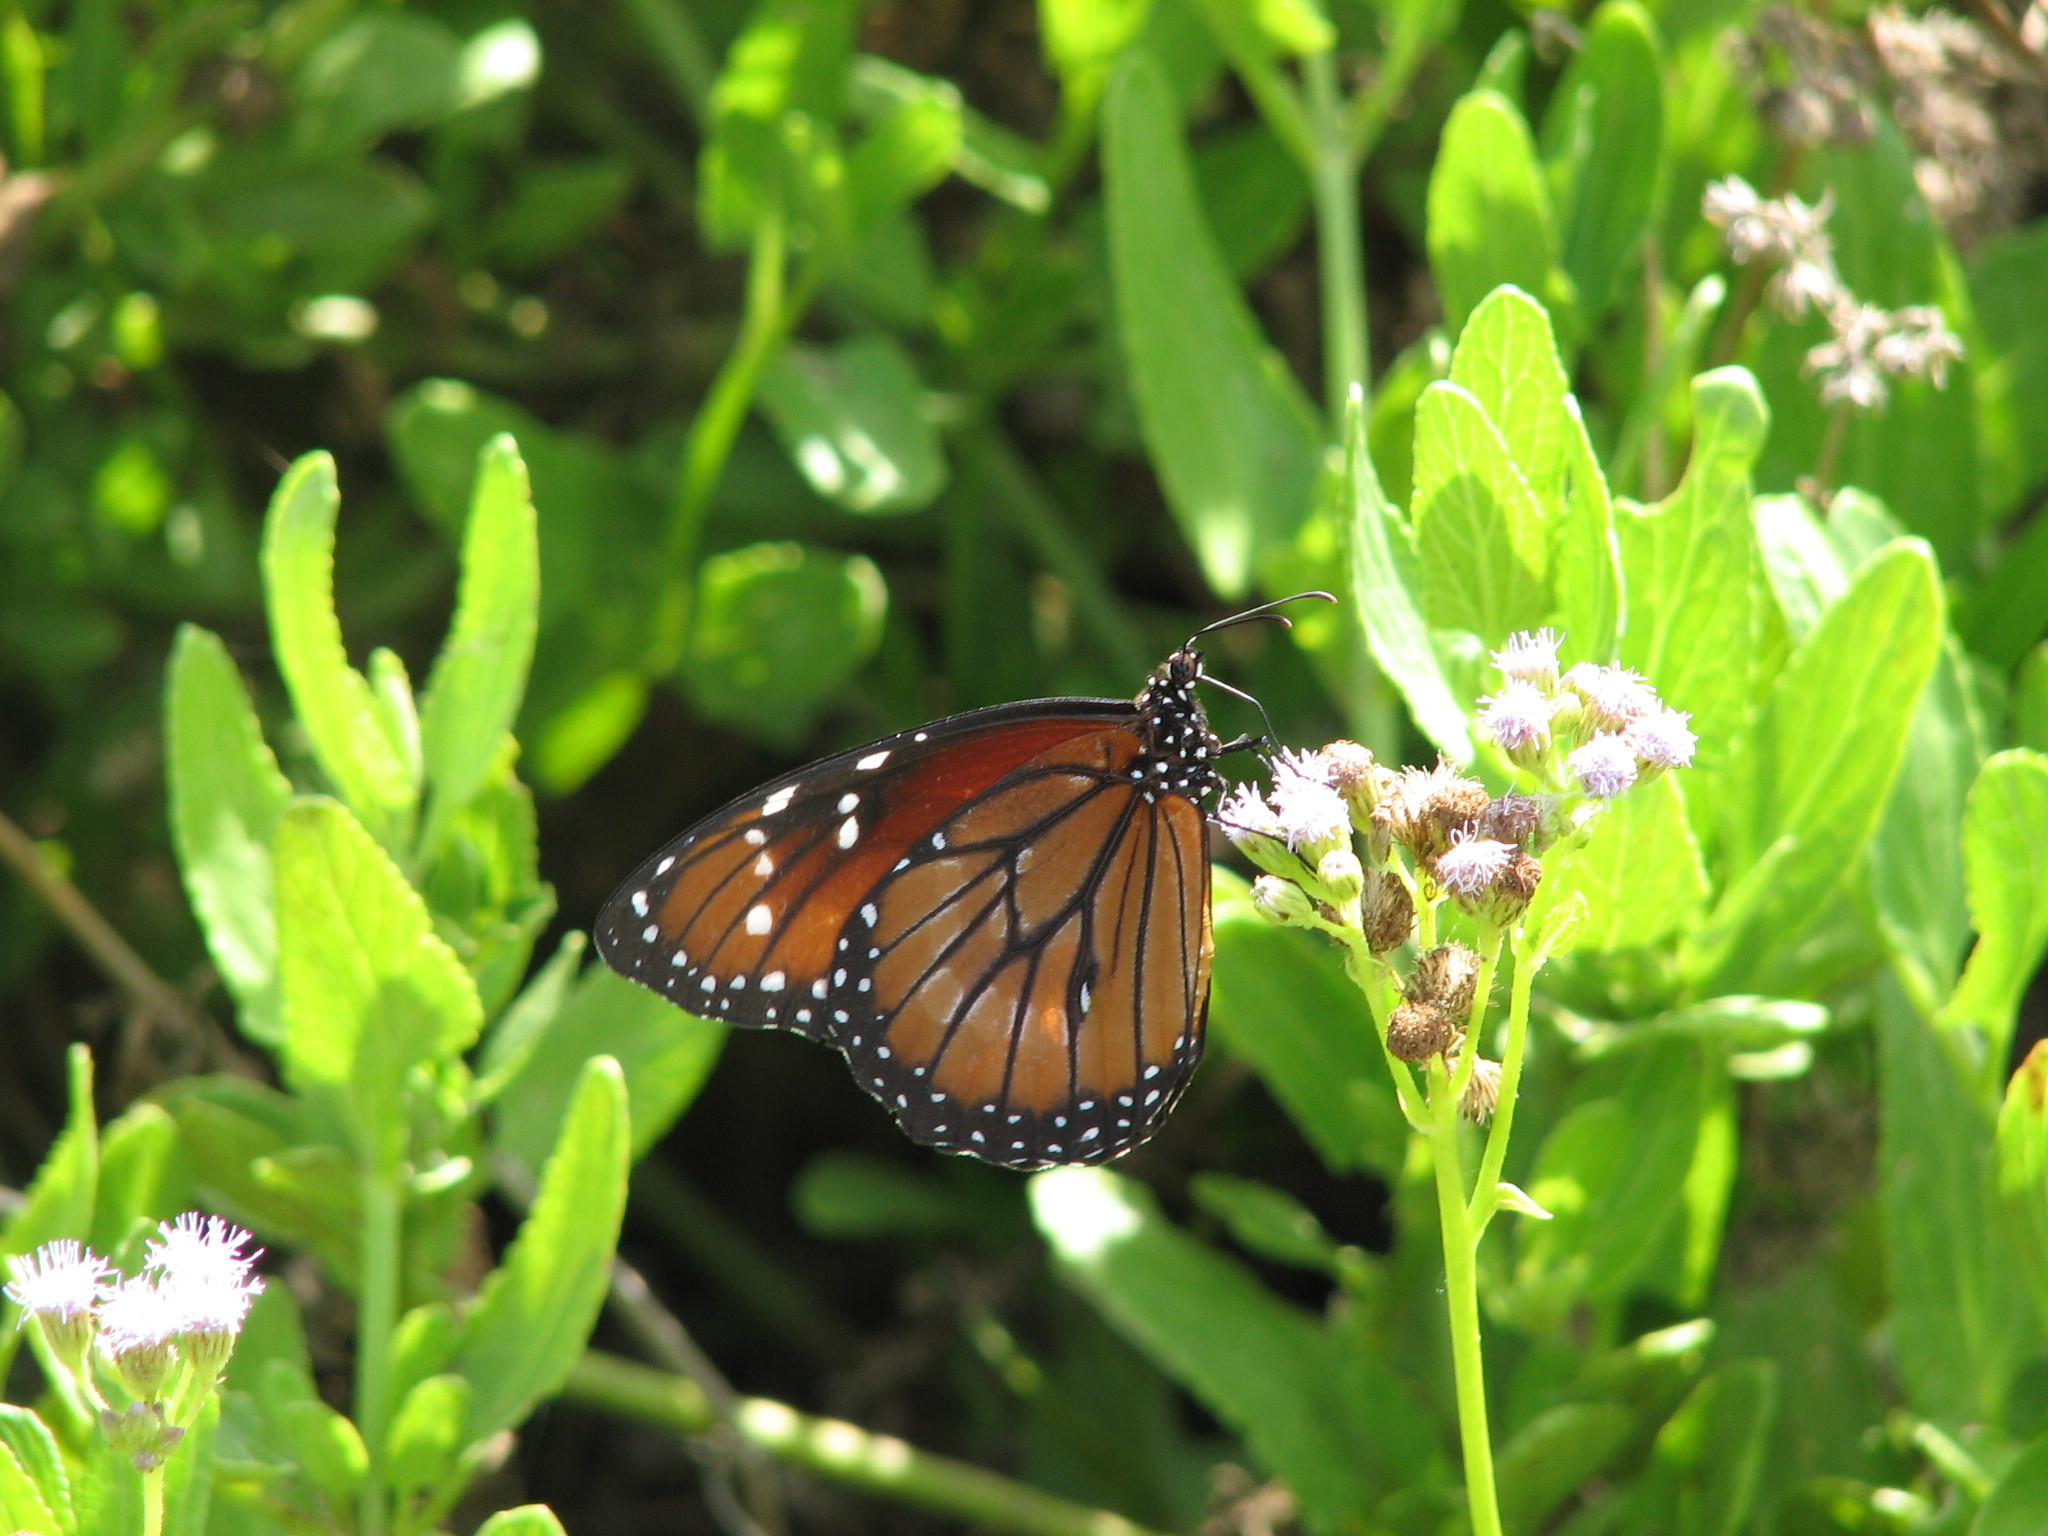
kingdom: Animalia
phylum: Arthropoda
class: Insecta
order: Lepidoptera
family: Nymphalidae
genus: Danaus
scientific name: Danaus eresimus
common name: Soldier
